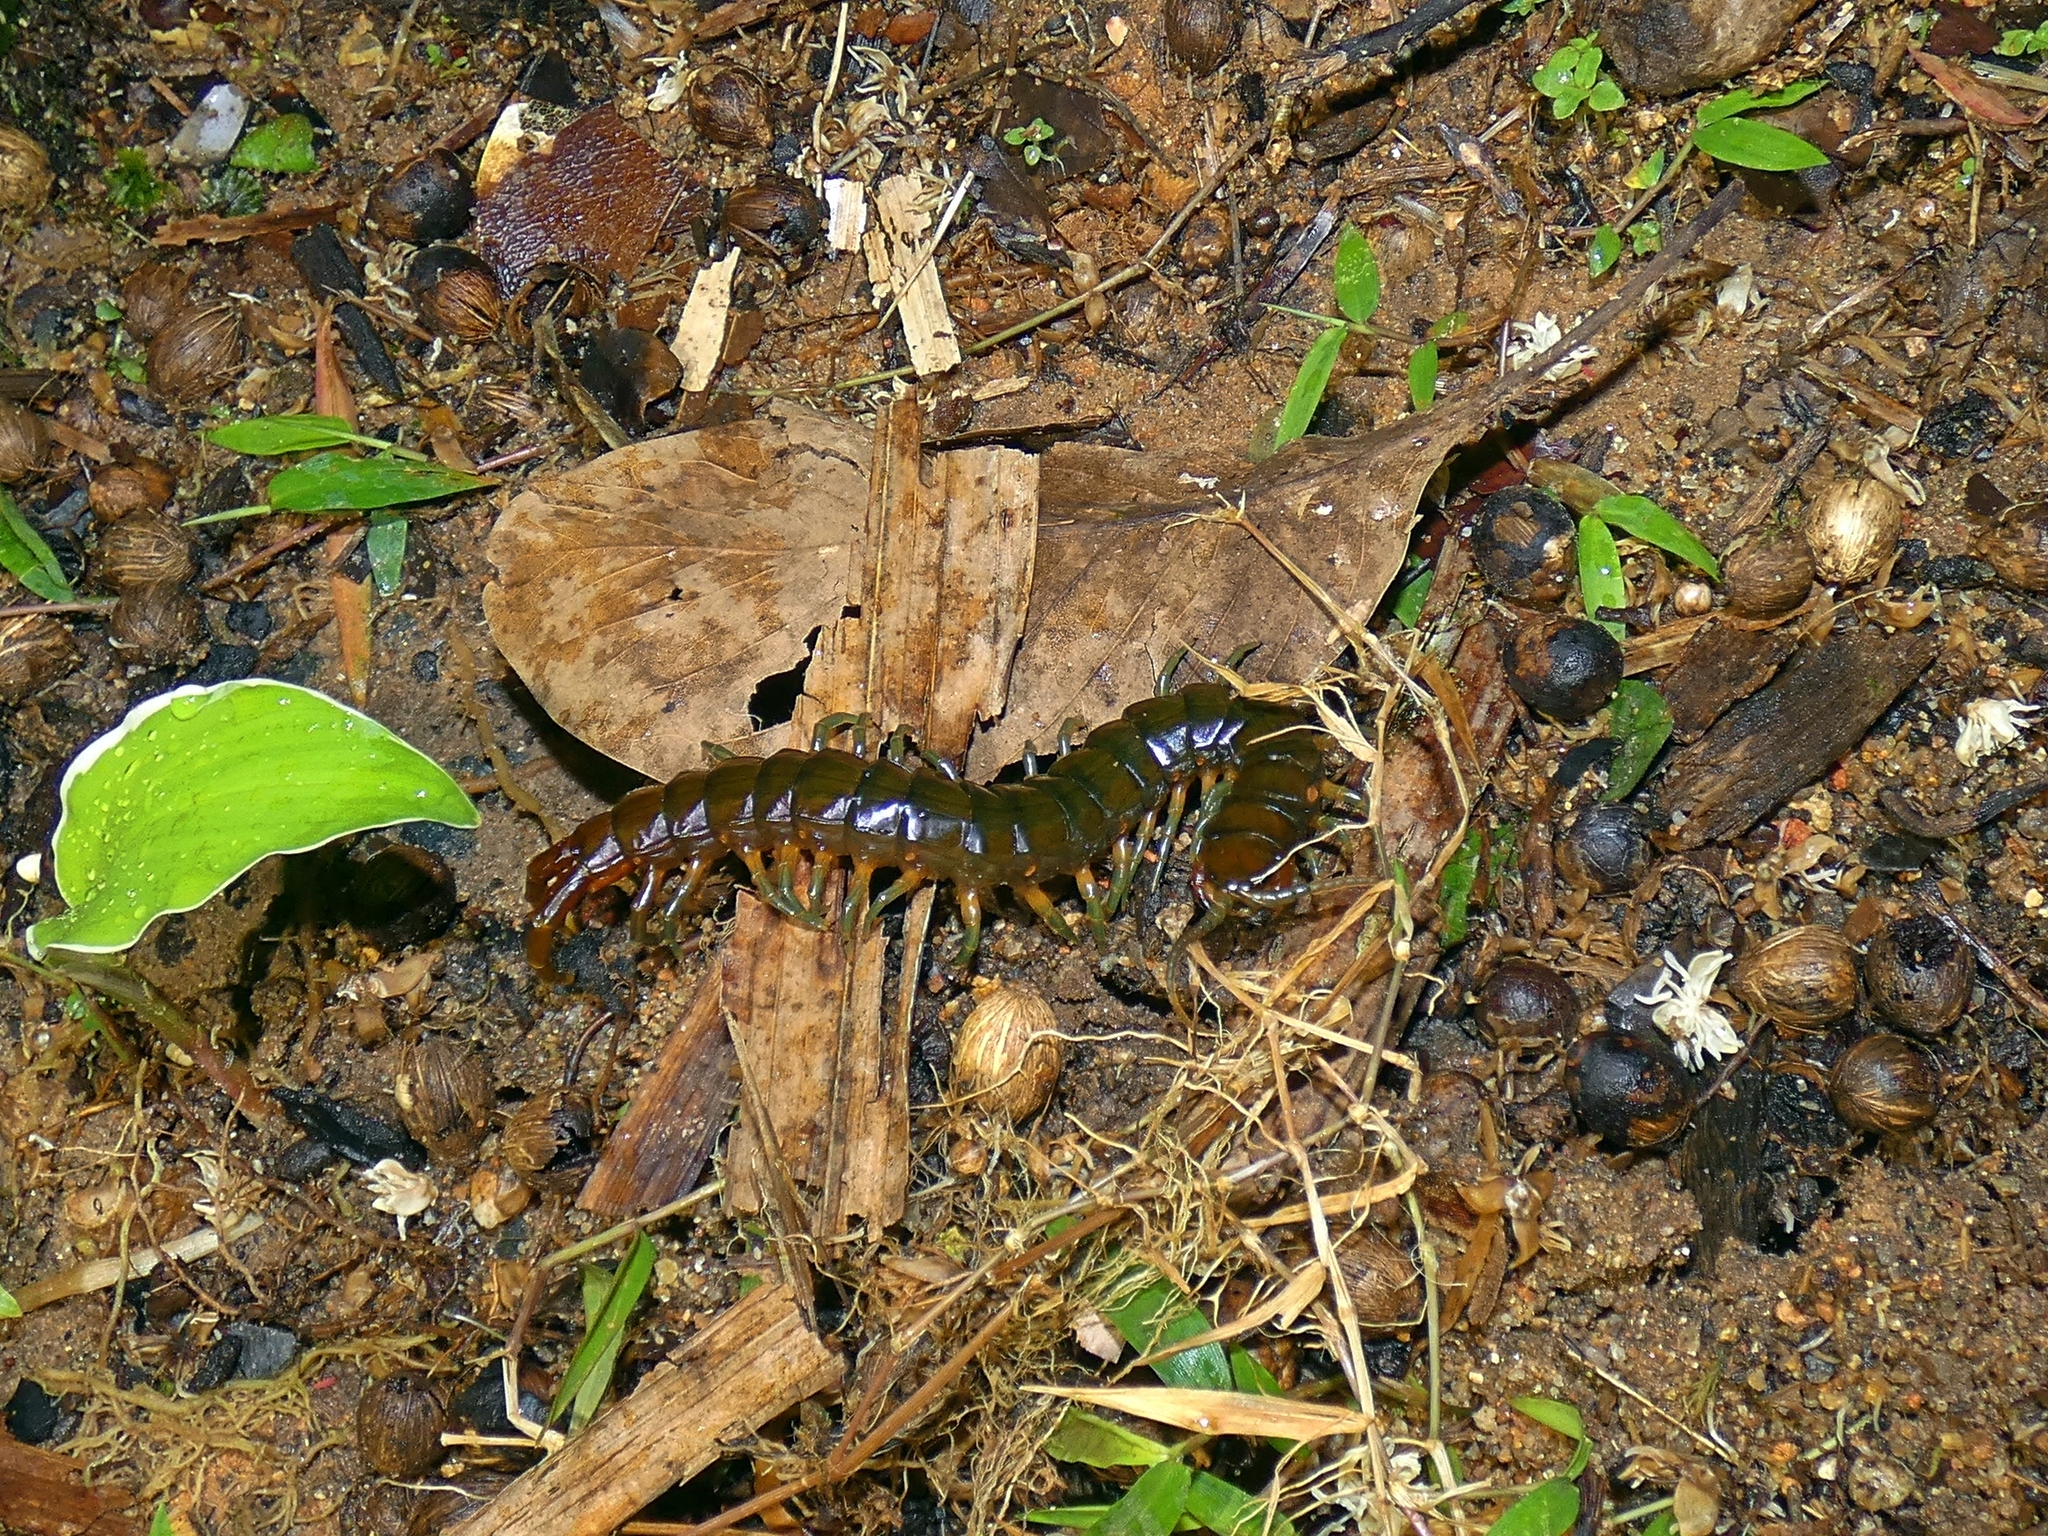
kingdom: Animalia
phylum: Arthropoda
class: Chilopoda
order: Scolopendromorpha
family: Scolopendridae
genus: Ethmostigmus
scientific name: Ethmostigmus rubripes
